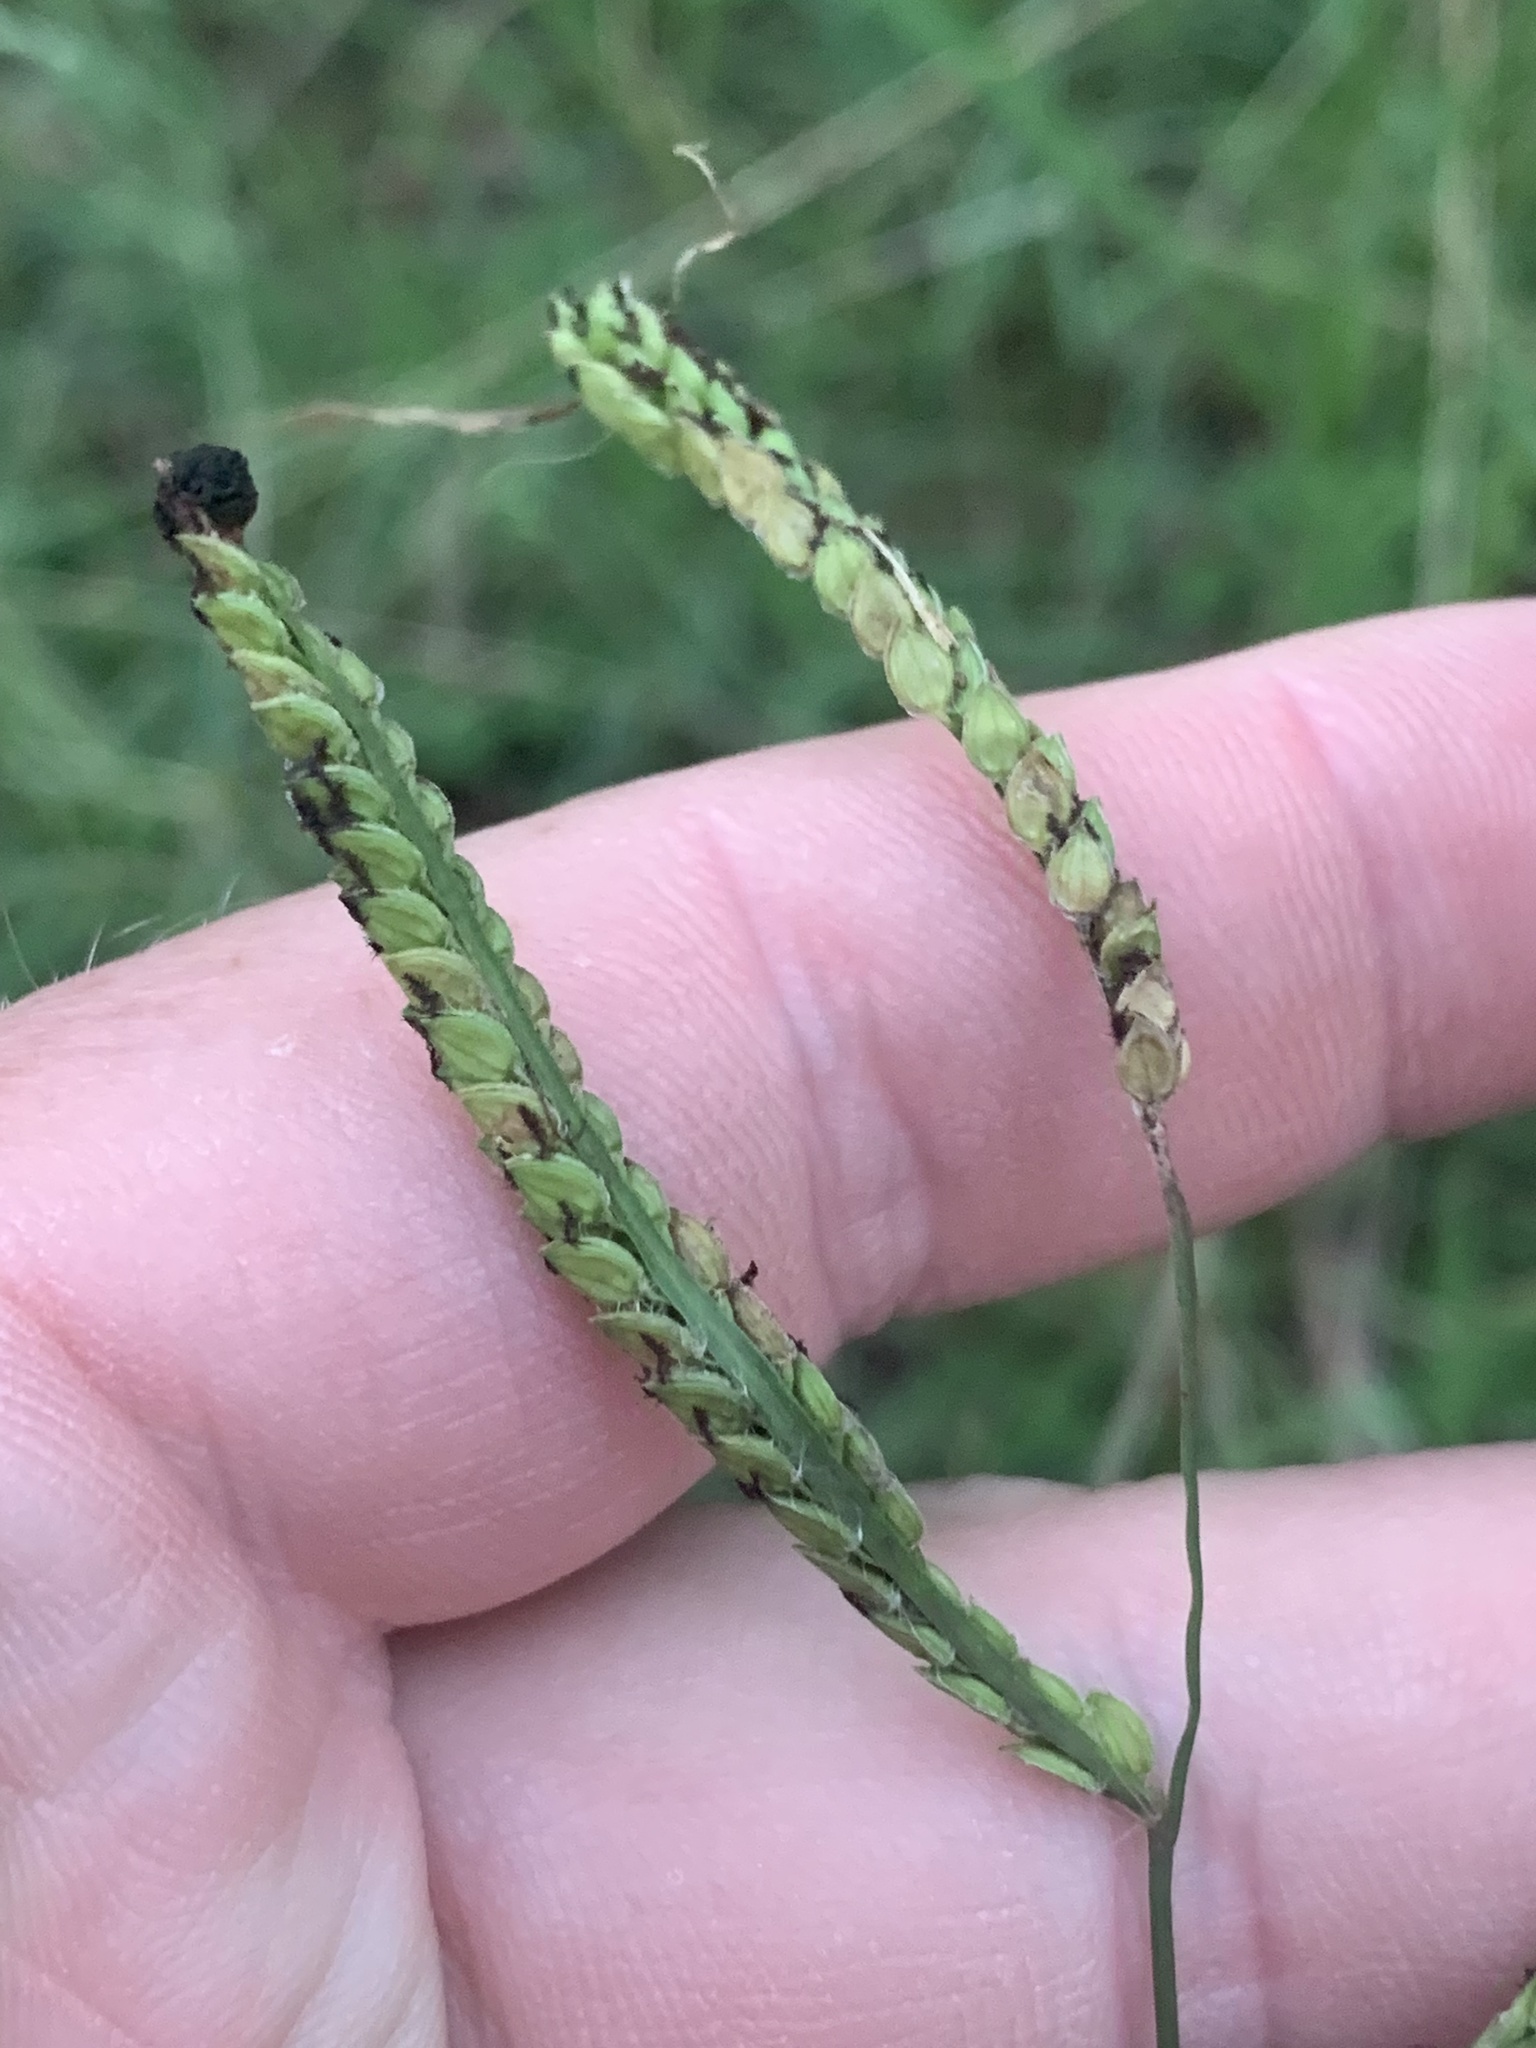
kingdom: Plantae
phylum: Tracheophyta
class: Liliopsida
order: Poales
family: Poaceae
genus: Paspalum
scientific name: Paspalum dilatatum
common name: Dallisgrass
